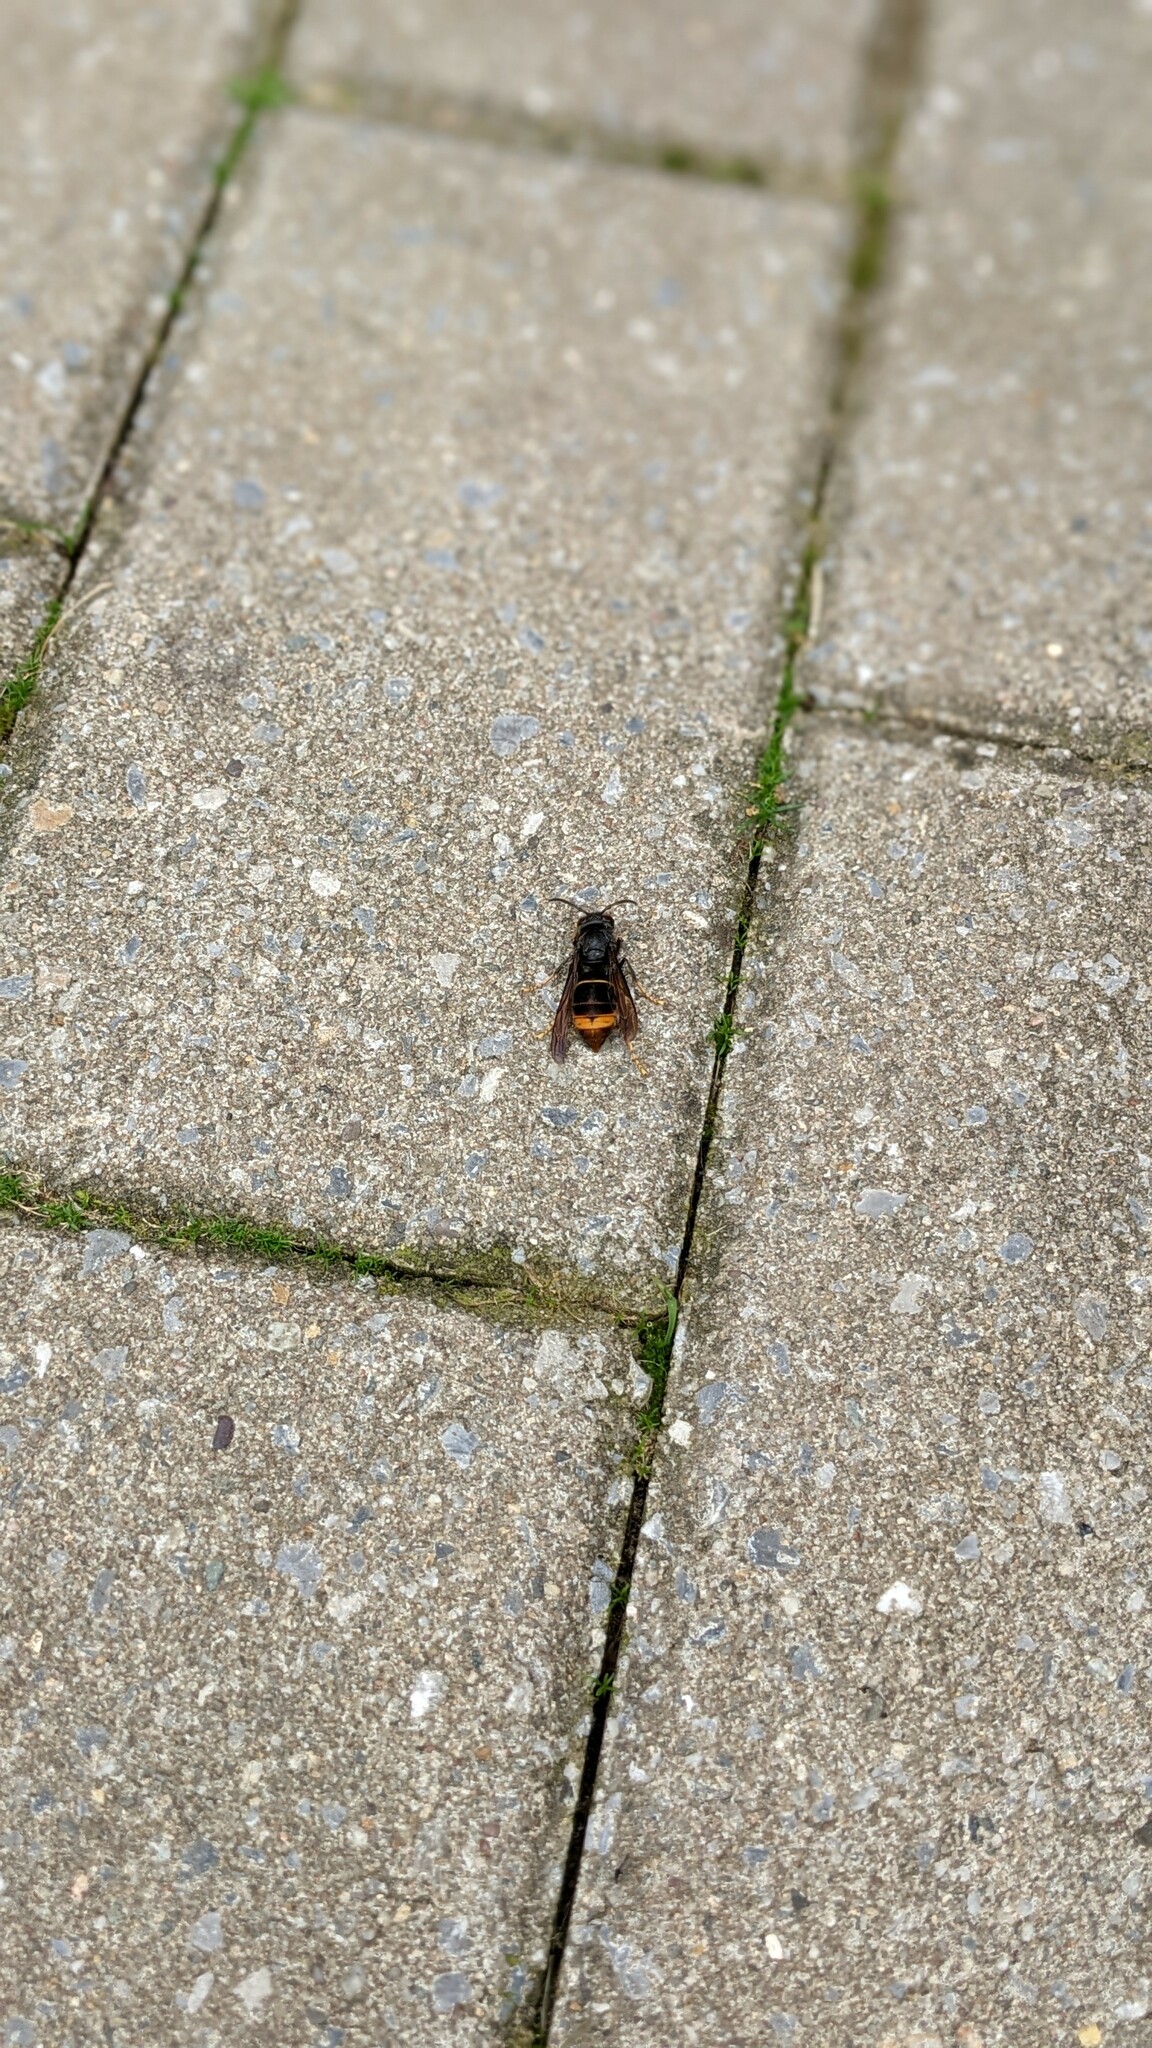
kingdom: Animalia
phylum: Arthropoda
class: Insecta
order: Hymenoptera
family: Vespidae
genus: Vespa
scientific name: Vespa velutina
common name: Asian hornet
